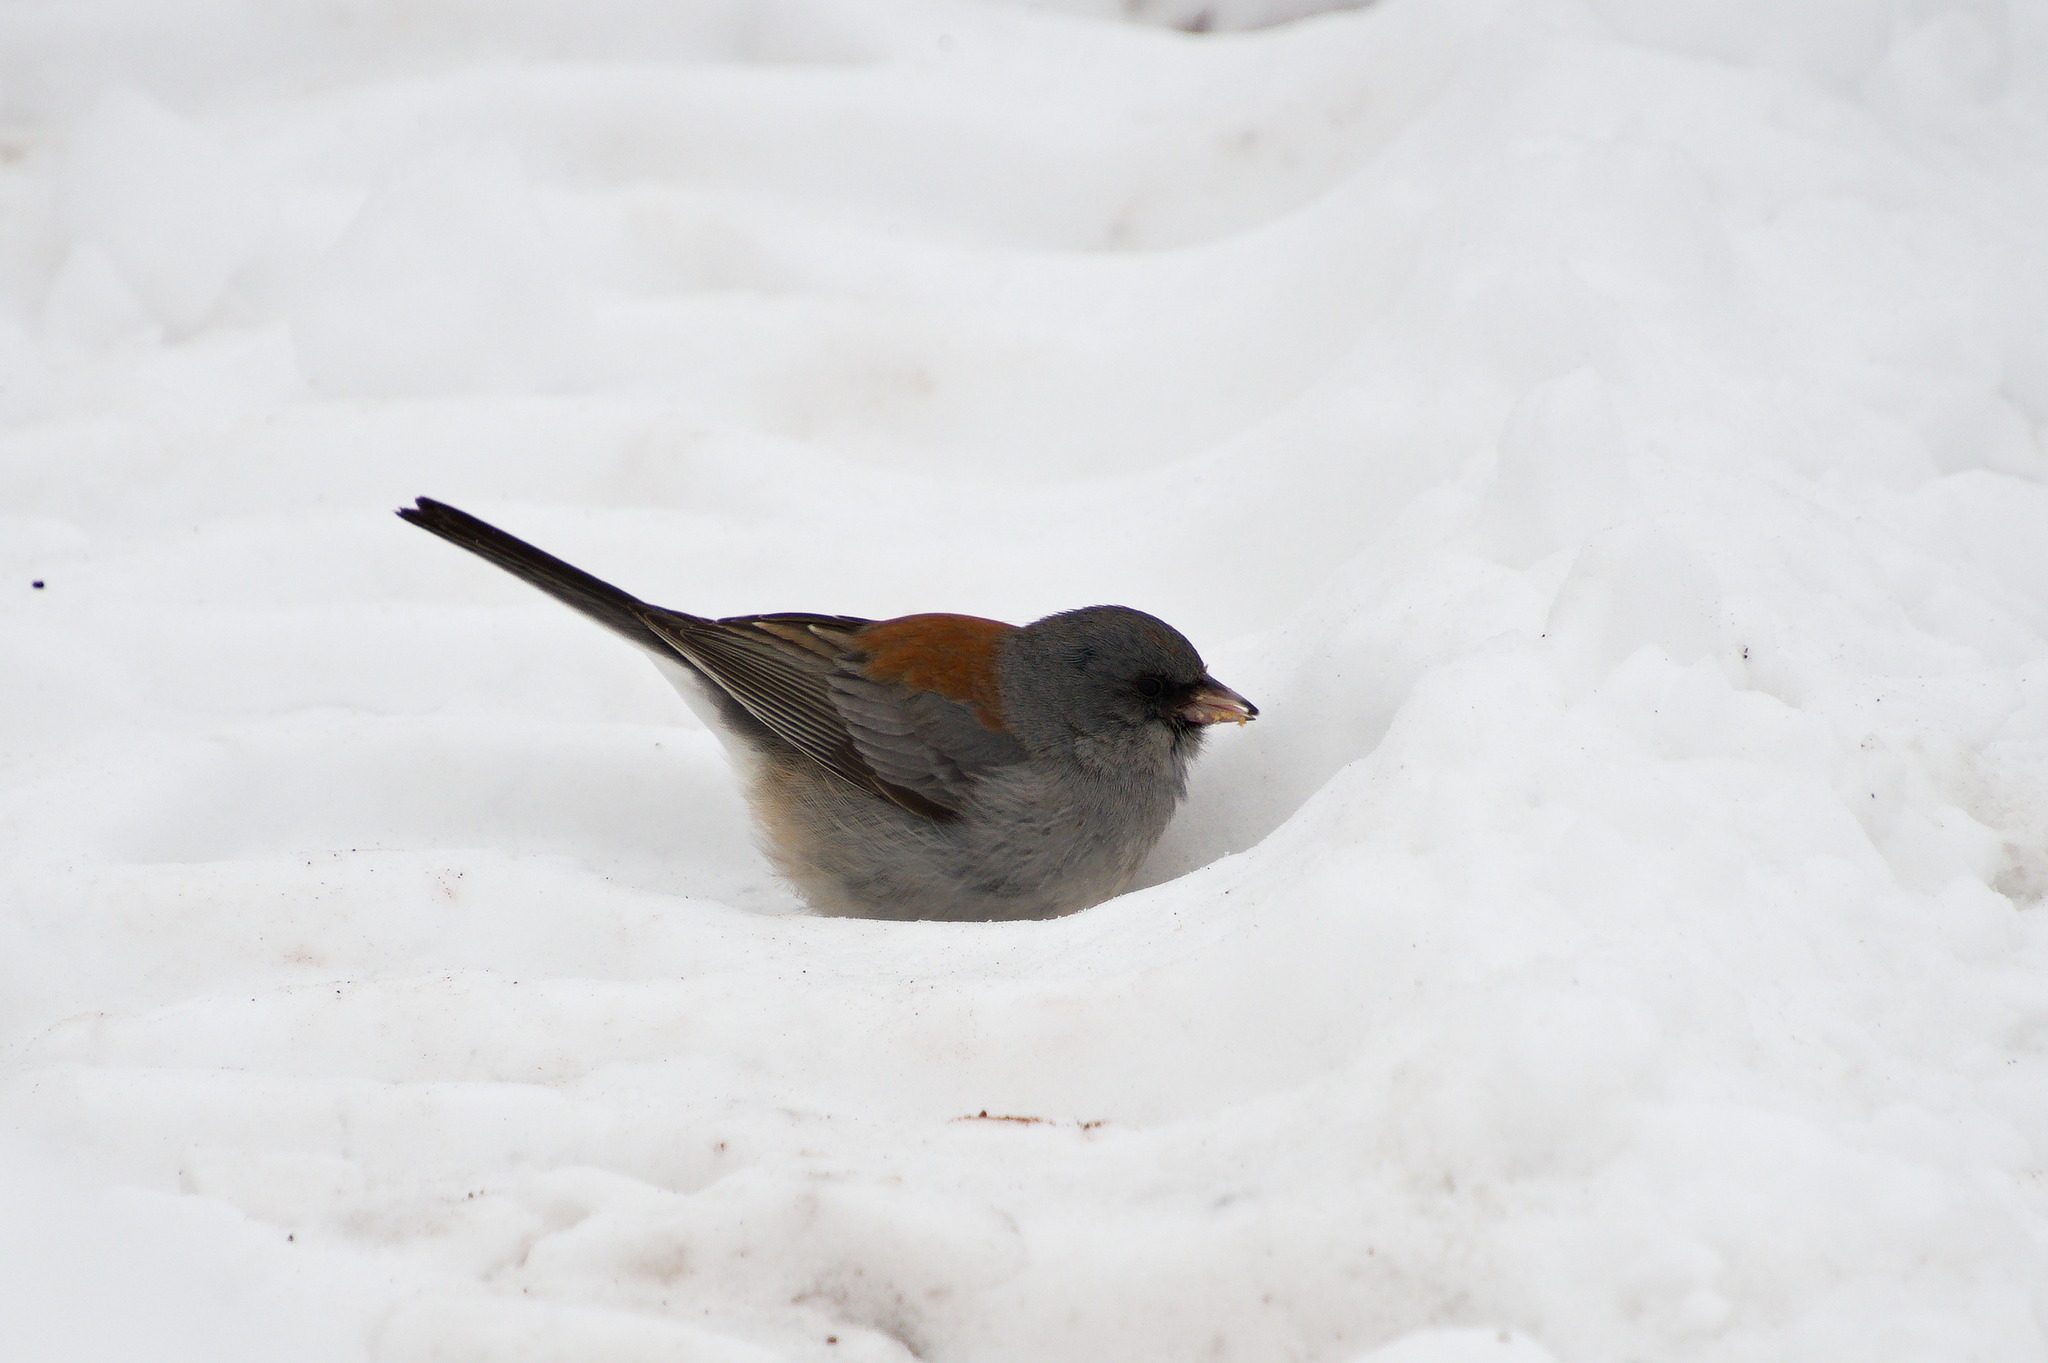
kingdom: Animalia
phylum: Chordata
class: Aves
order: Passeriformes
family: Passerellidae
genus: Junco
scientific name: Junco hyemalis
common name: Dark-eyed junco
